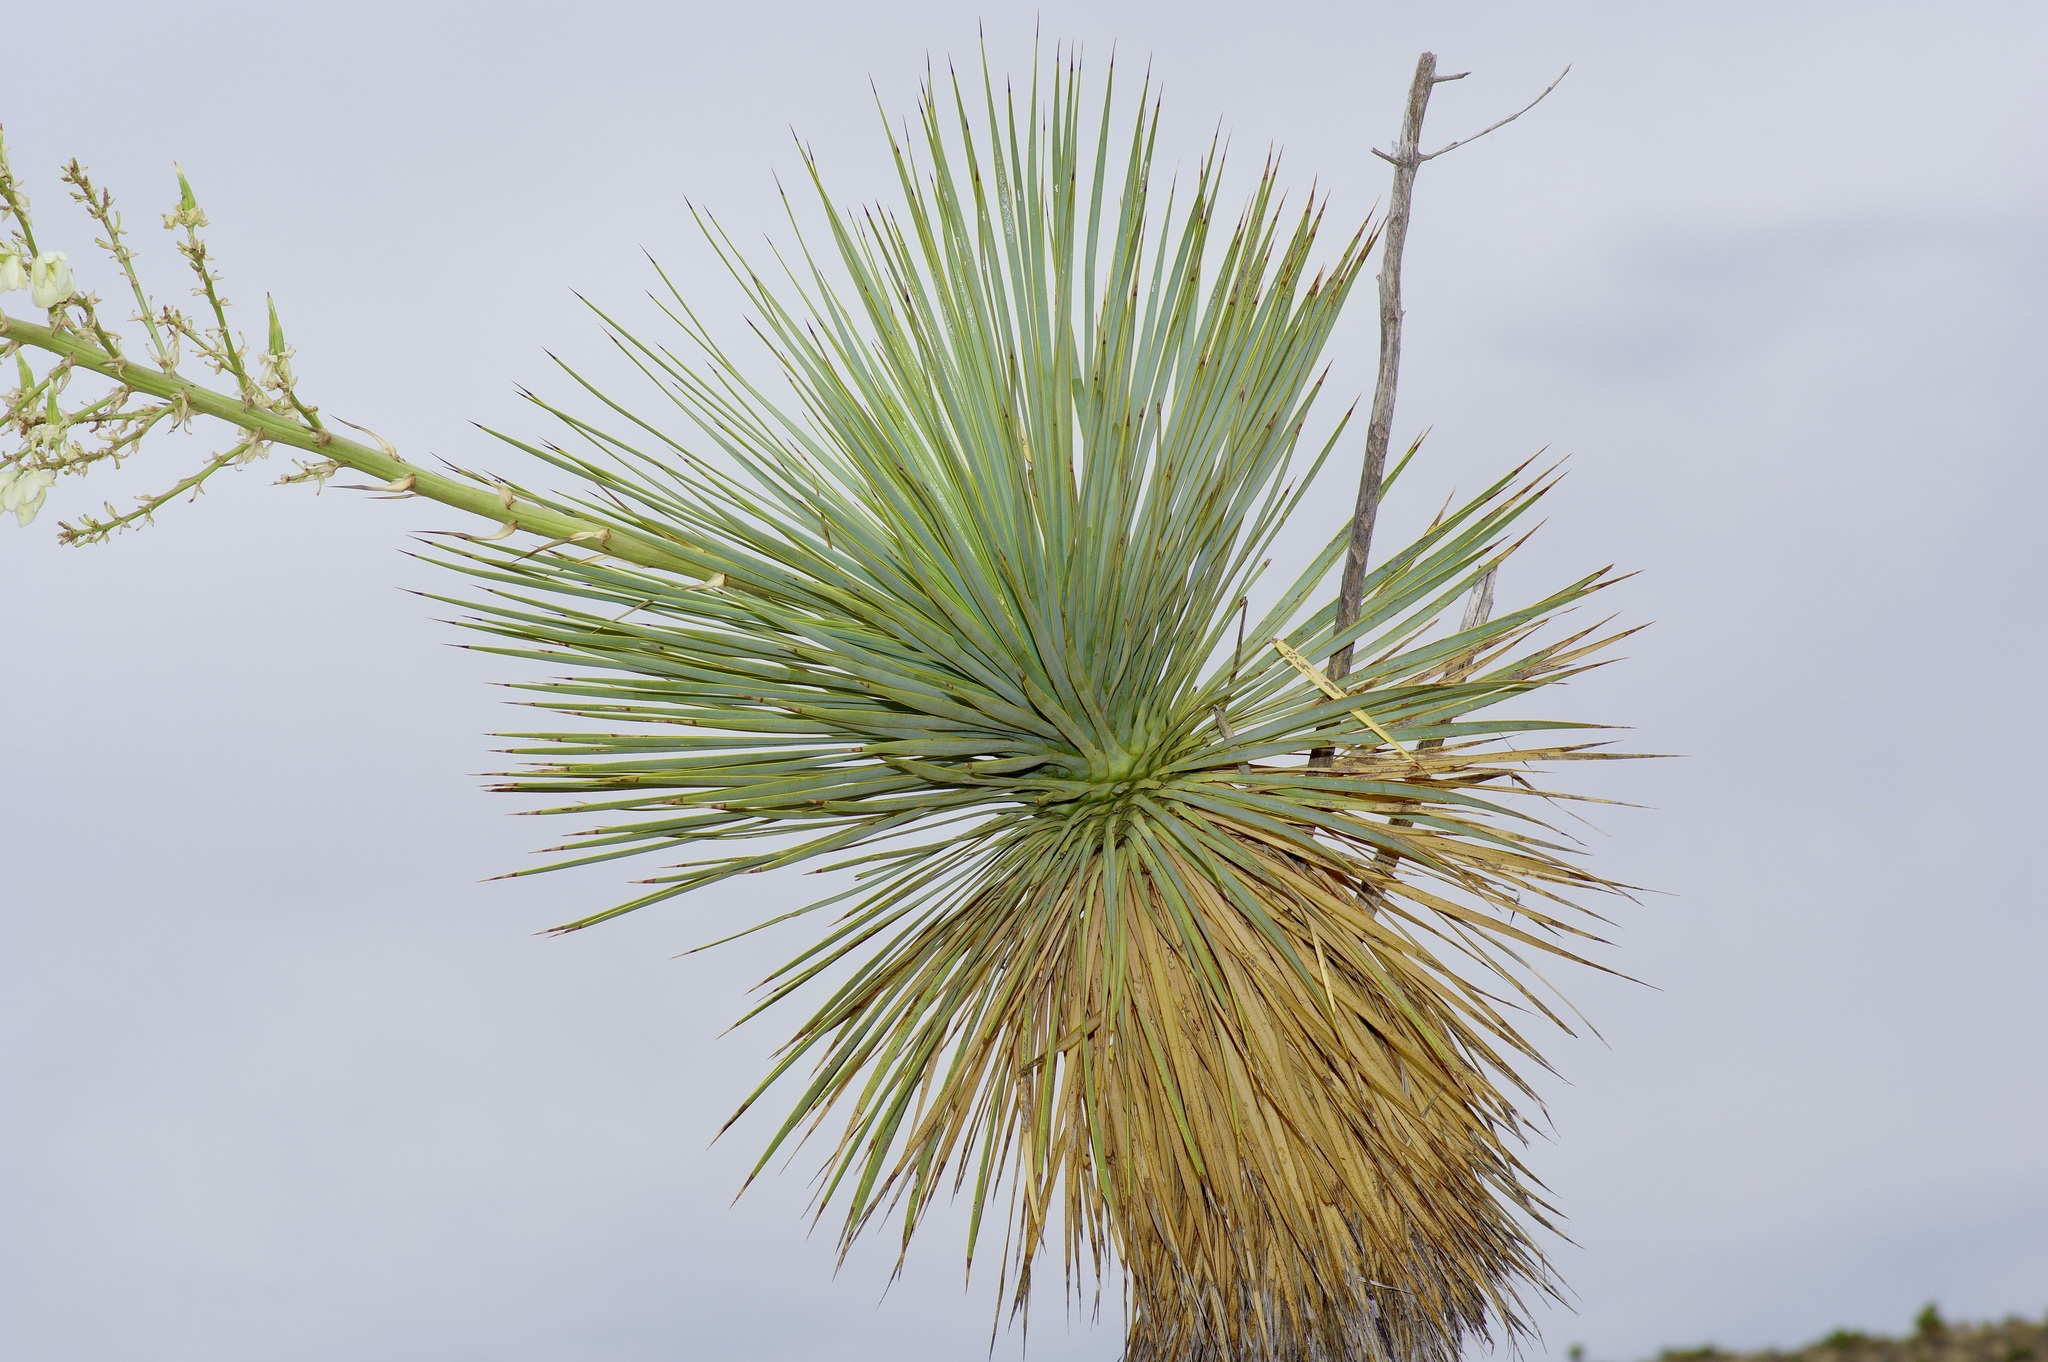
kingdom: Plantae
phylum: Tracheophyta
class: Liliopsida
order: Asparagales
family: Asparagaceae
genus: Yucca
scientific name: Yucca thompsoniana
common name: Trans-pecos yucca
